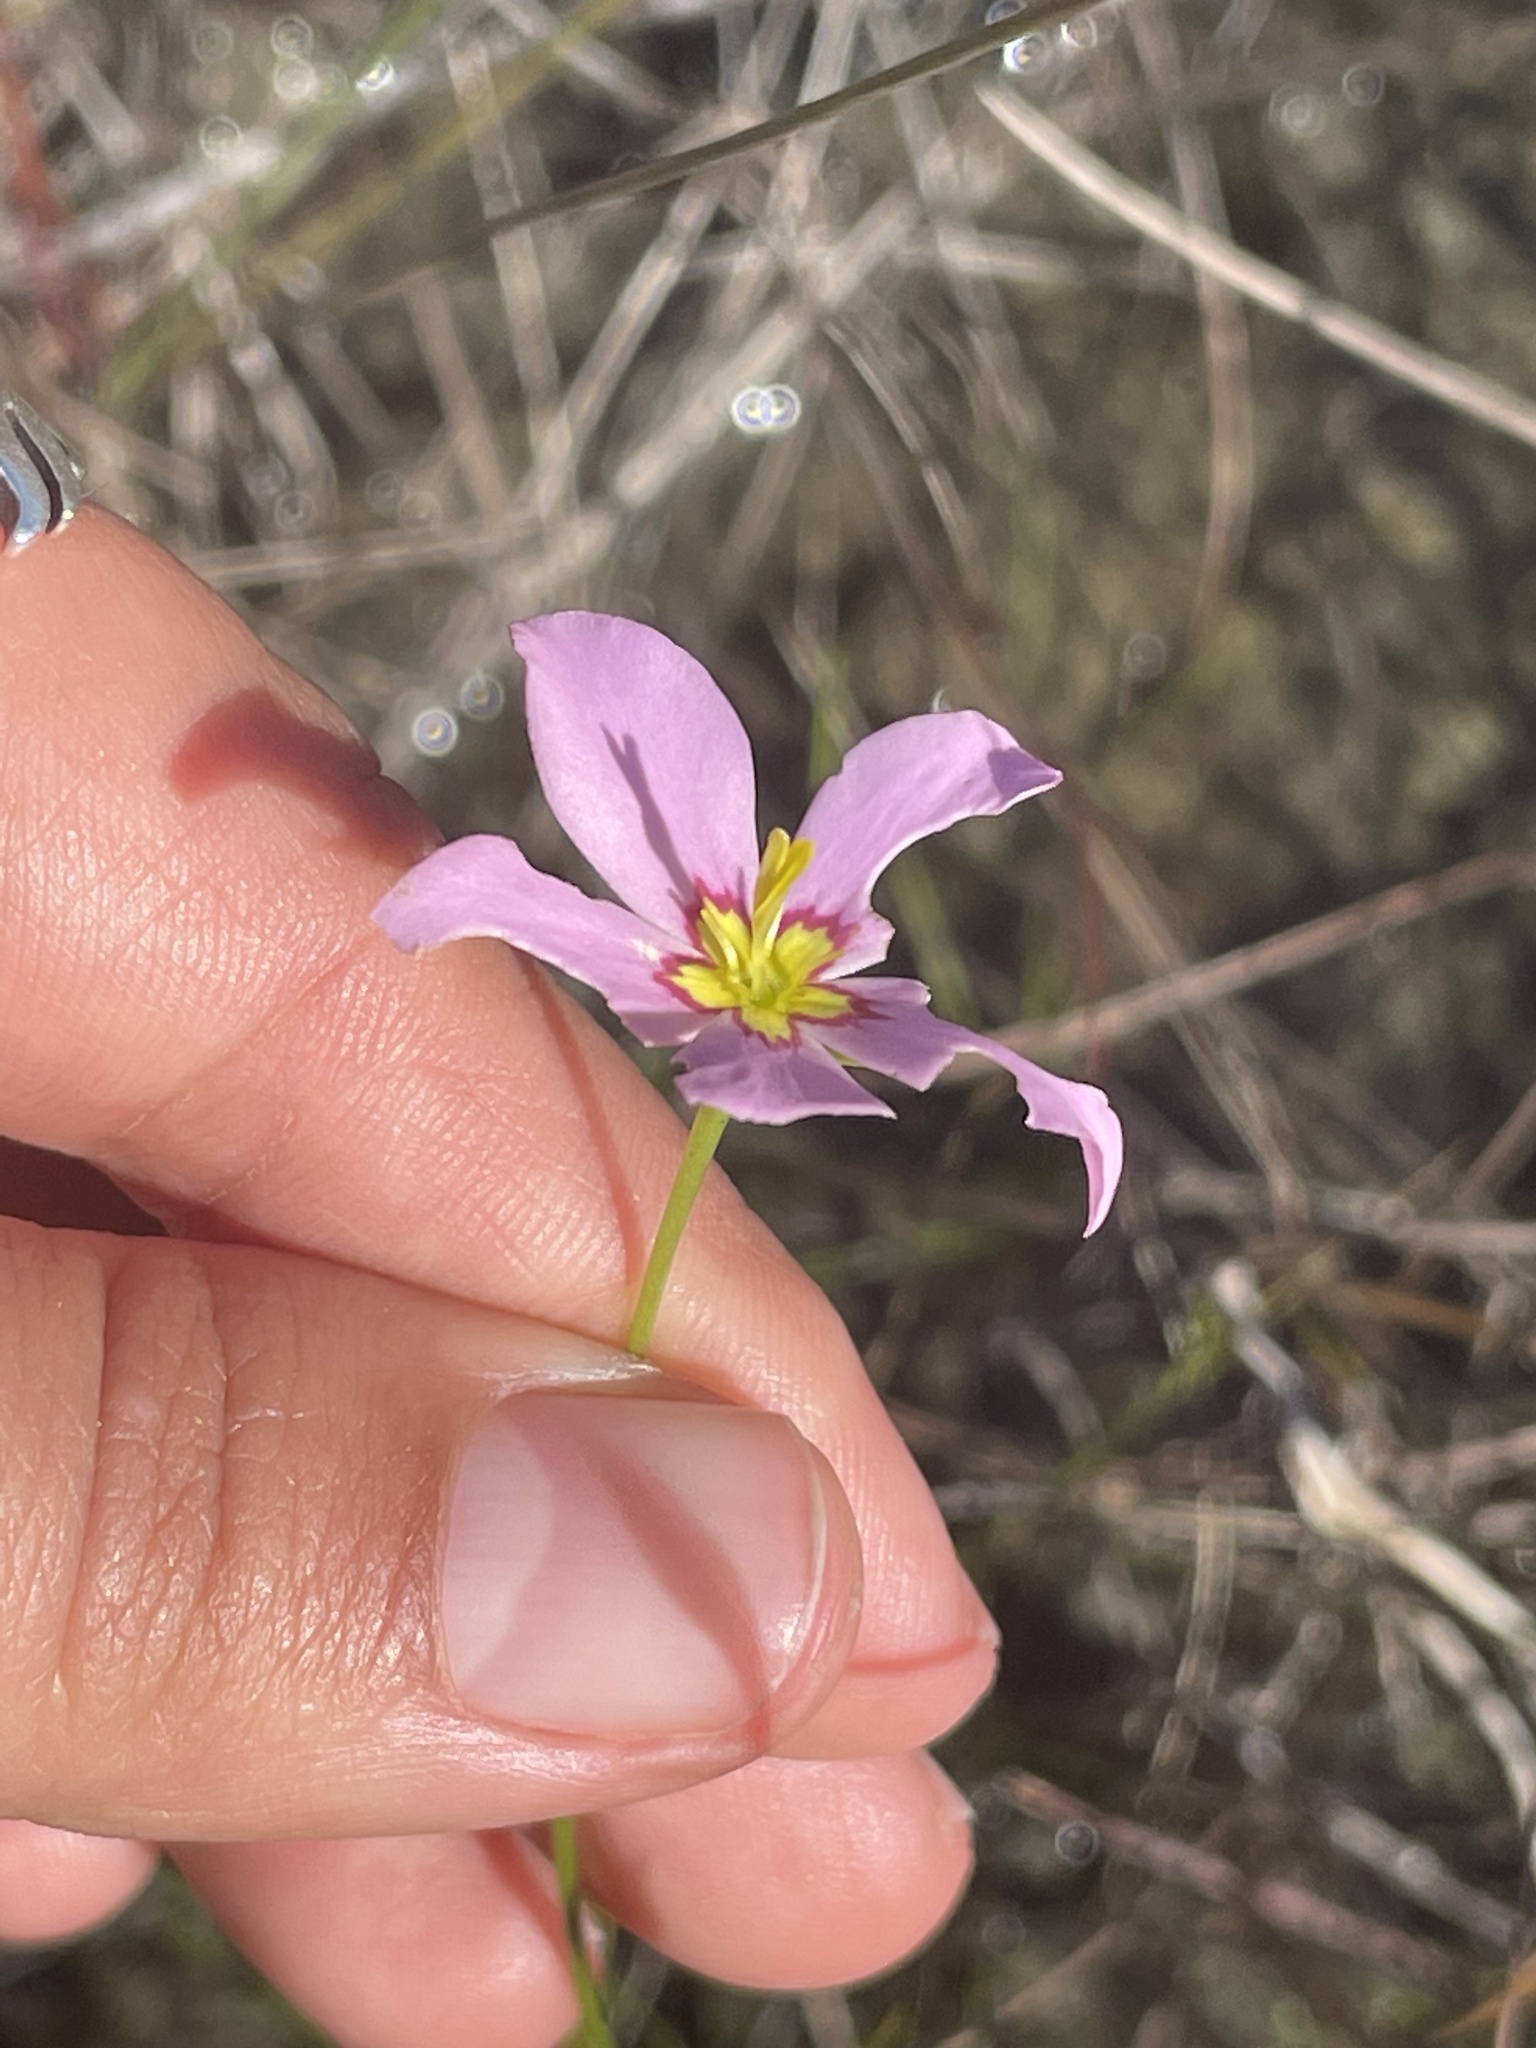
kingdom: Plantae
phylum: Tracheophyta
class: Magnoliopsida
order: Gentianales
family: Gentianaceae
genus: Sabatia
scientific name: Sabatia stellaris
